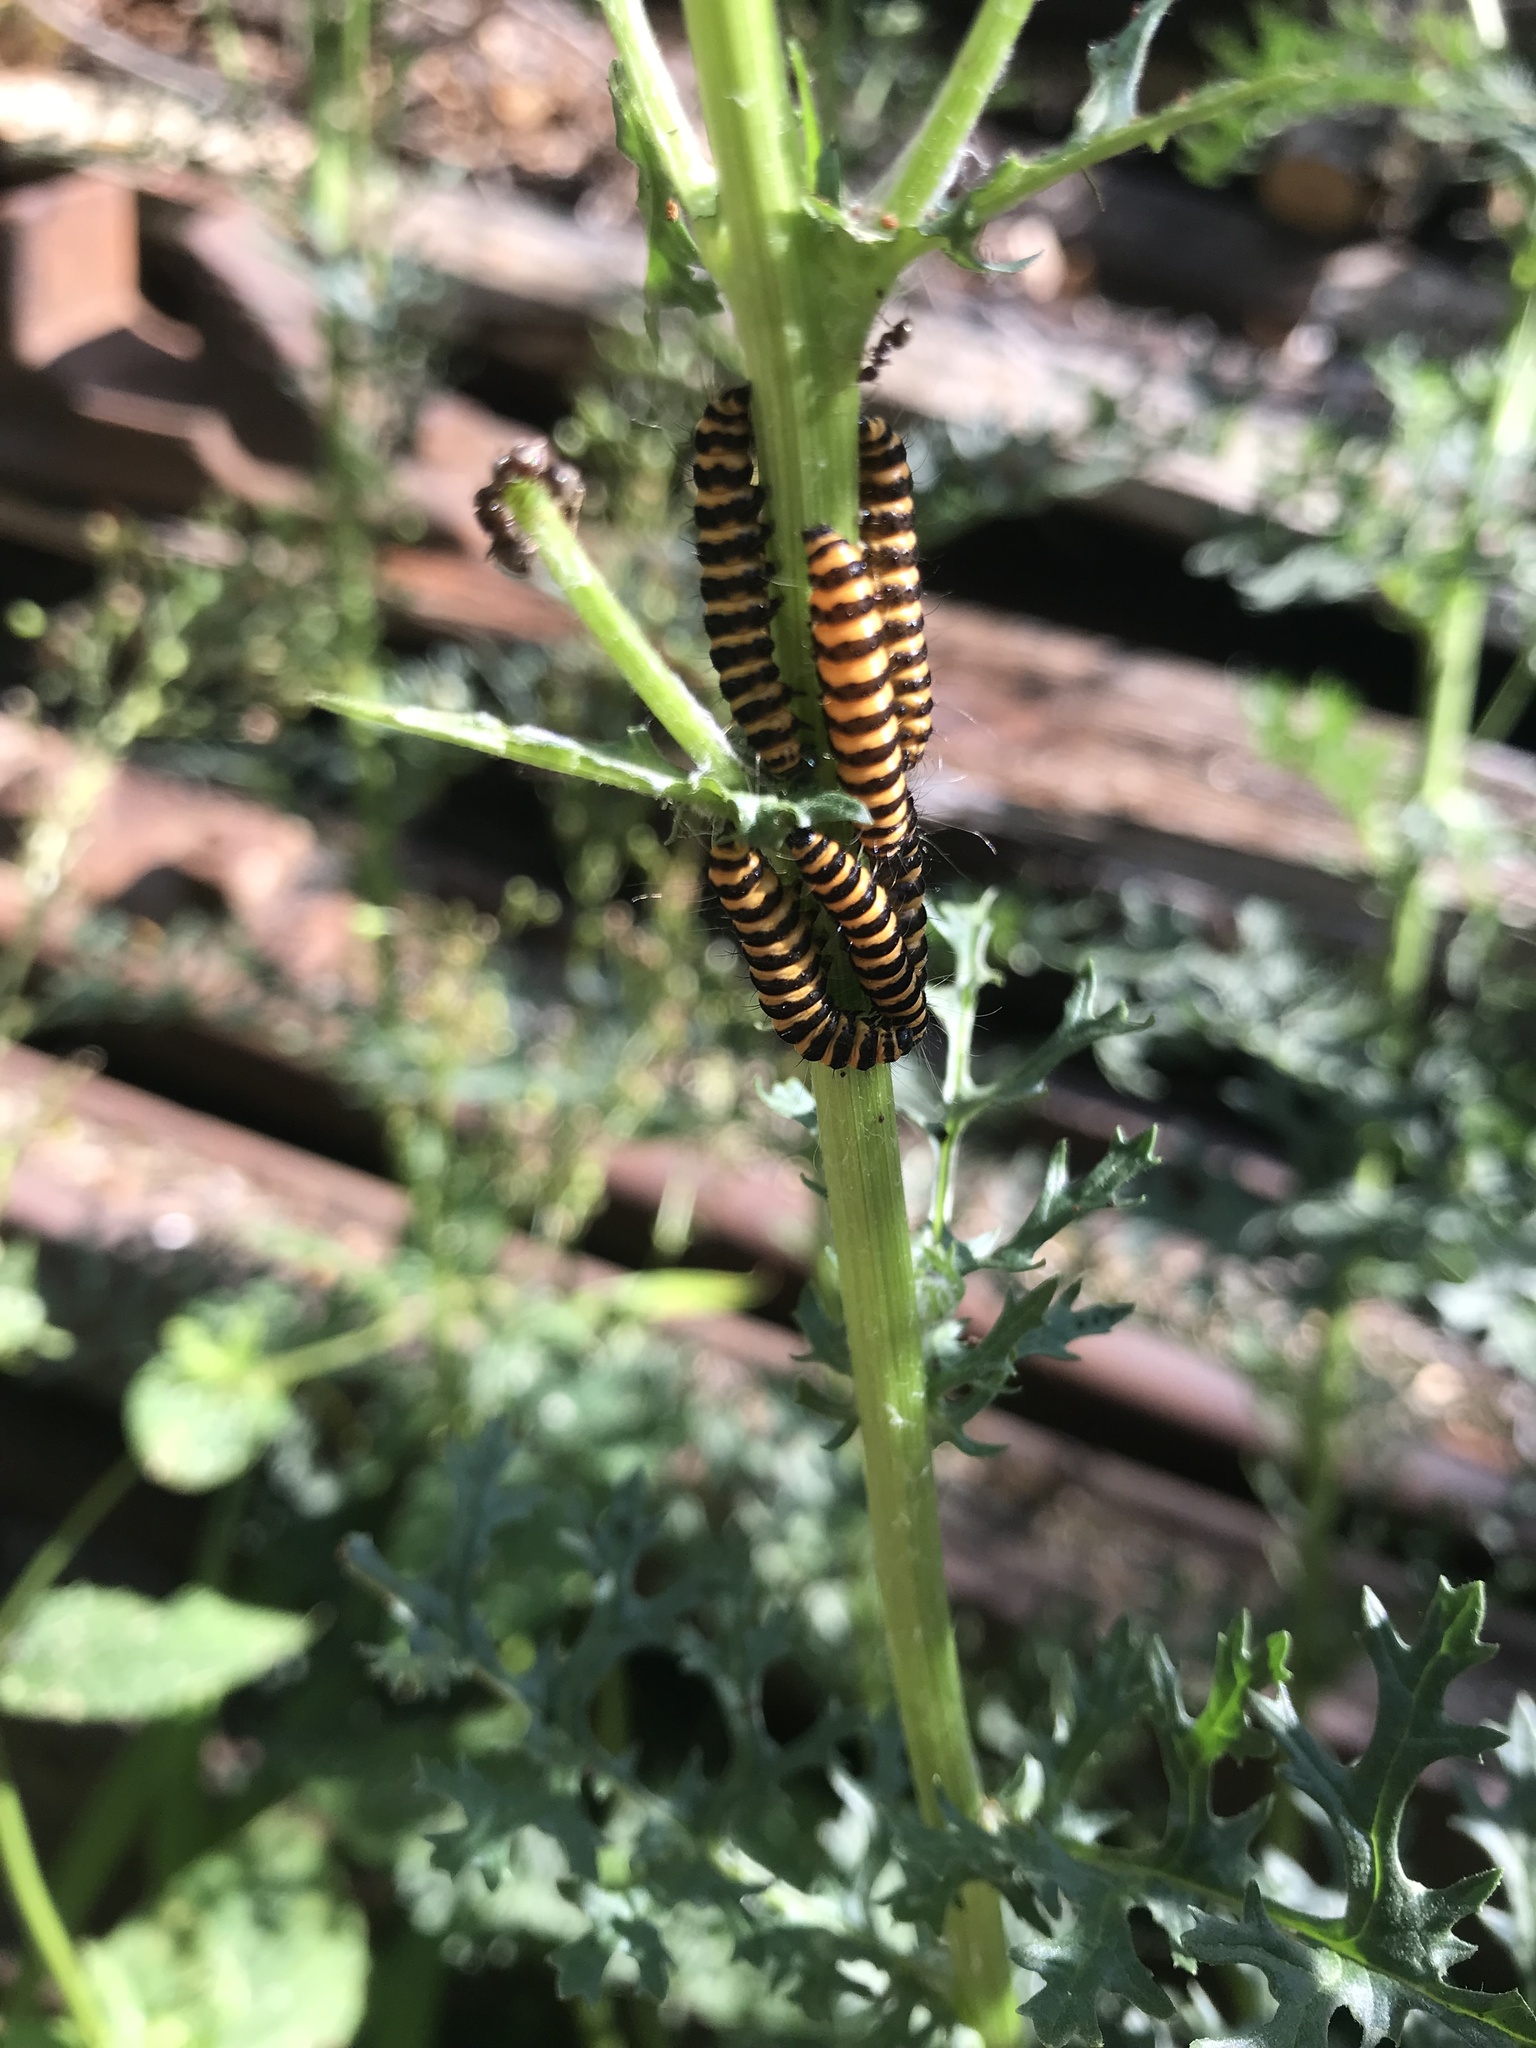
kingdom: Animalia
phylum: Arthropoda
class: Insecta
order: Lepidoptera
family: Erebidae
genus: Tyria
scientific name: Tyria jacobaeae
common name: Cinnabar
